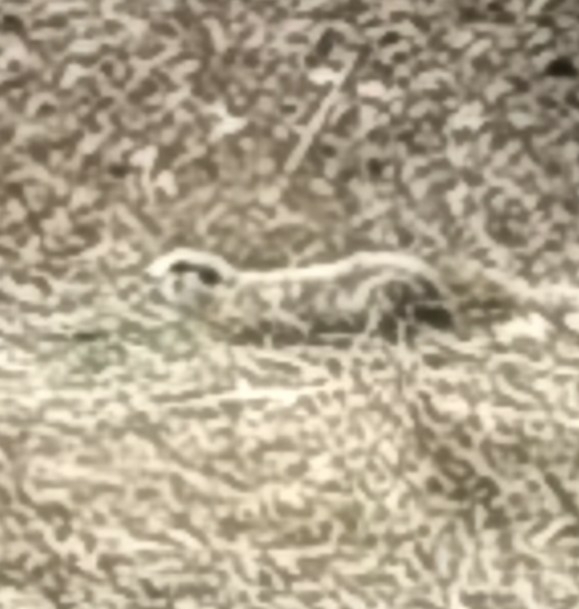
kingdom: Animalia
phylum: Chordata
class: Mammalia
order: Rodentia
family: Sciuridae
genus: Spermophilus
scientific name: Spermophilus erythrogenys
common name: Red-cheeked ground squirrel
